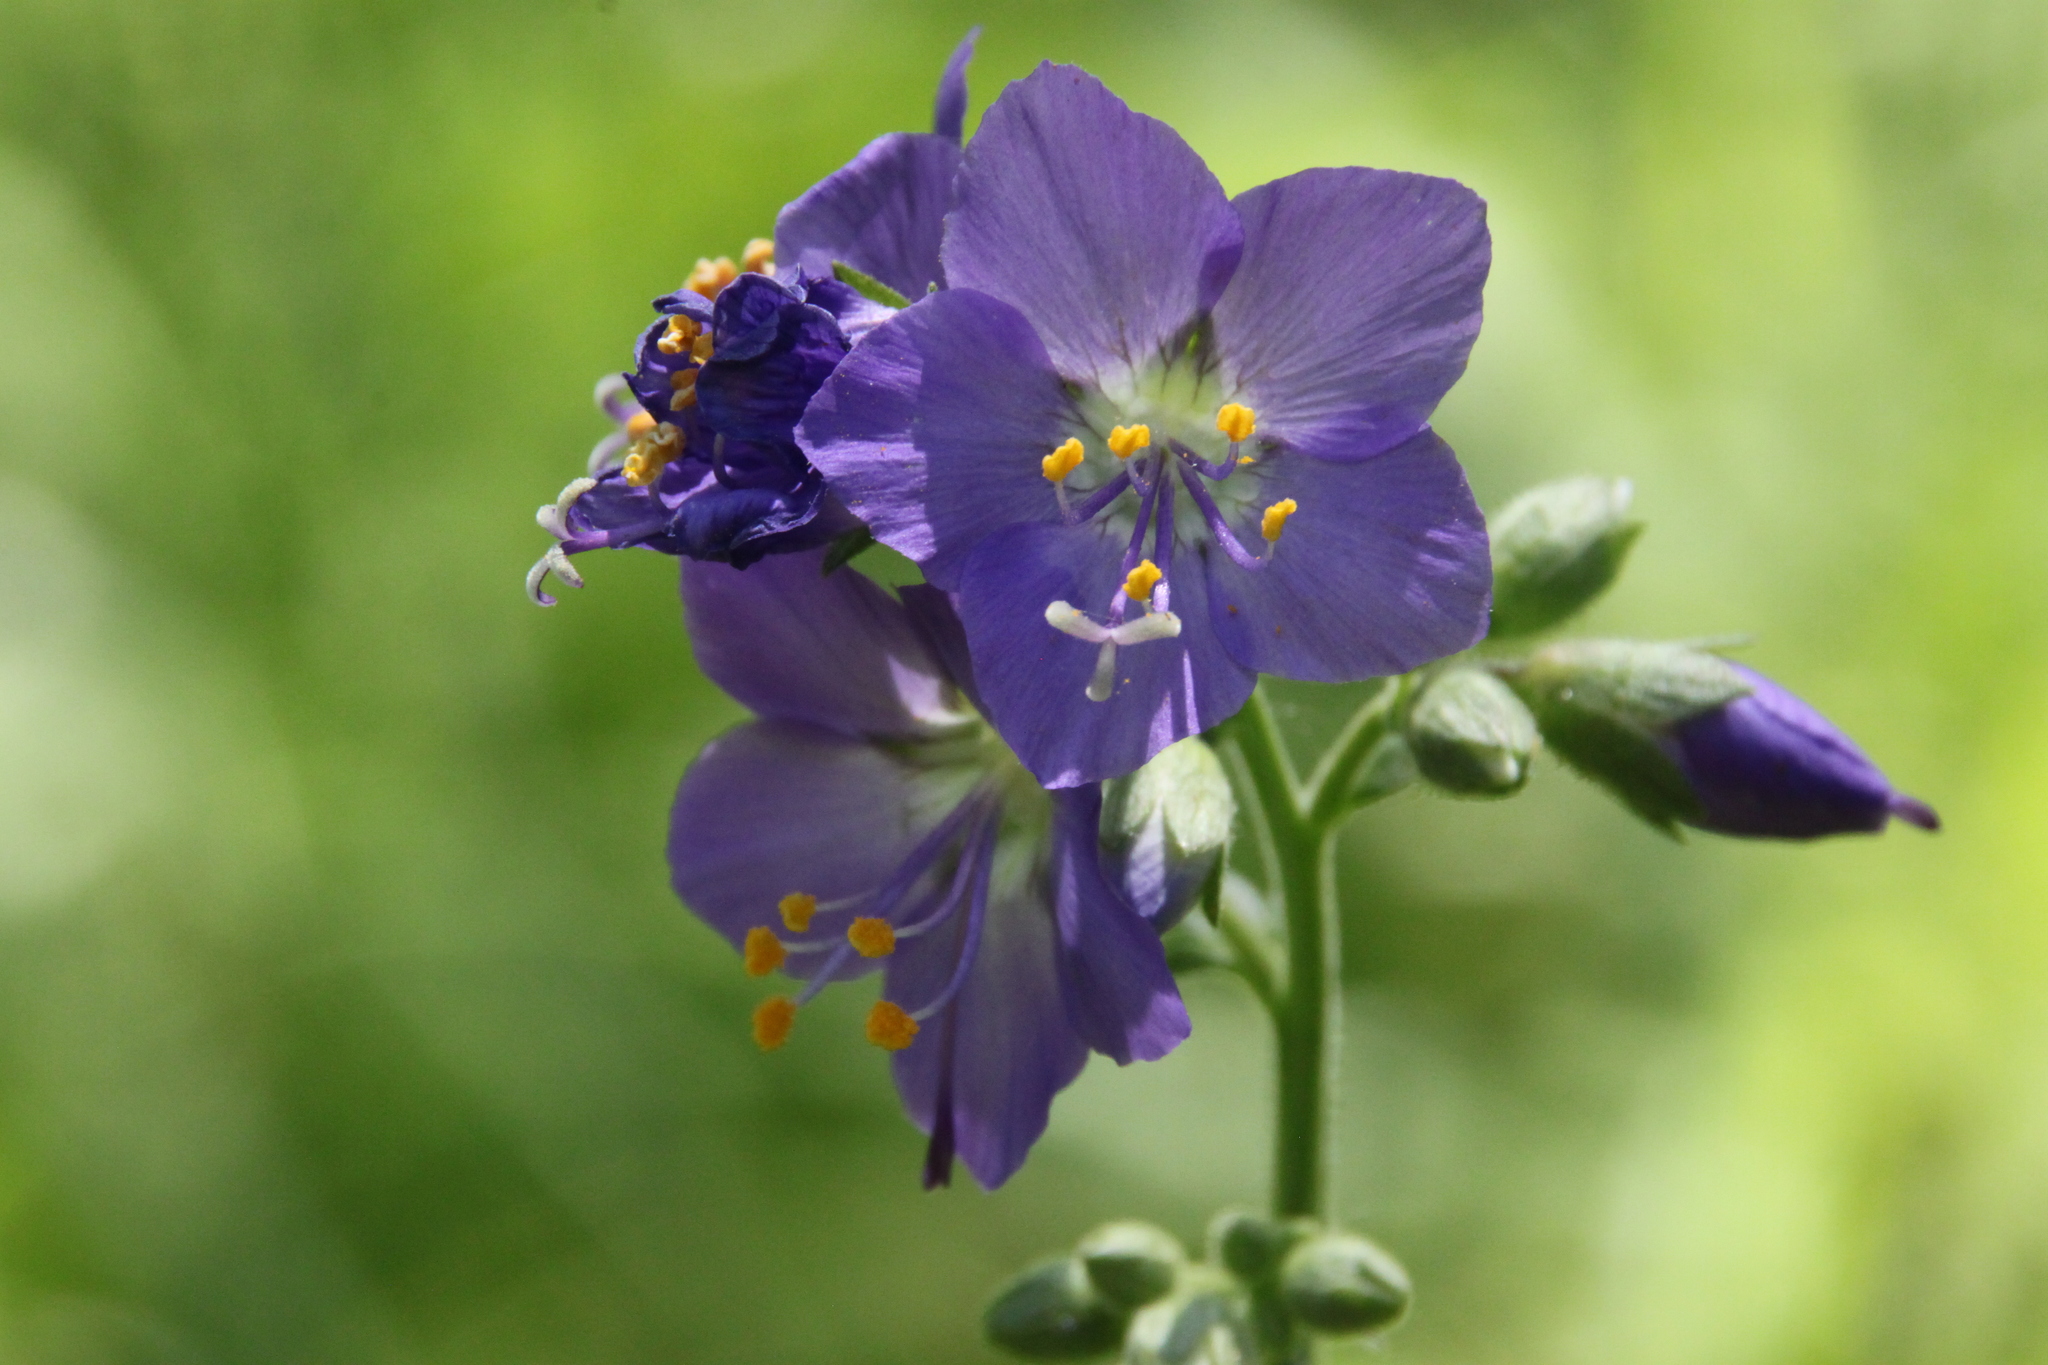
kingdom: Plantae
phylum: Tracheophyta
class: Magnoliopsida
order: Ericales
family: Polemoniaceae
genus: Polemonium
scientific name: Polemonium caeruleum
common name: Jacob's-ladder
